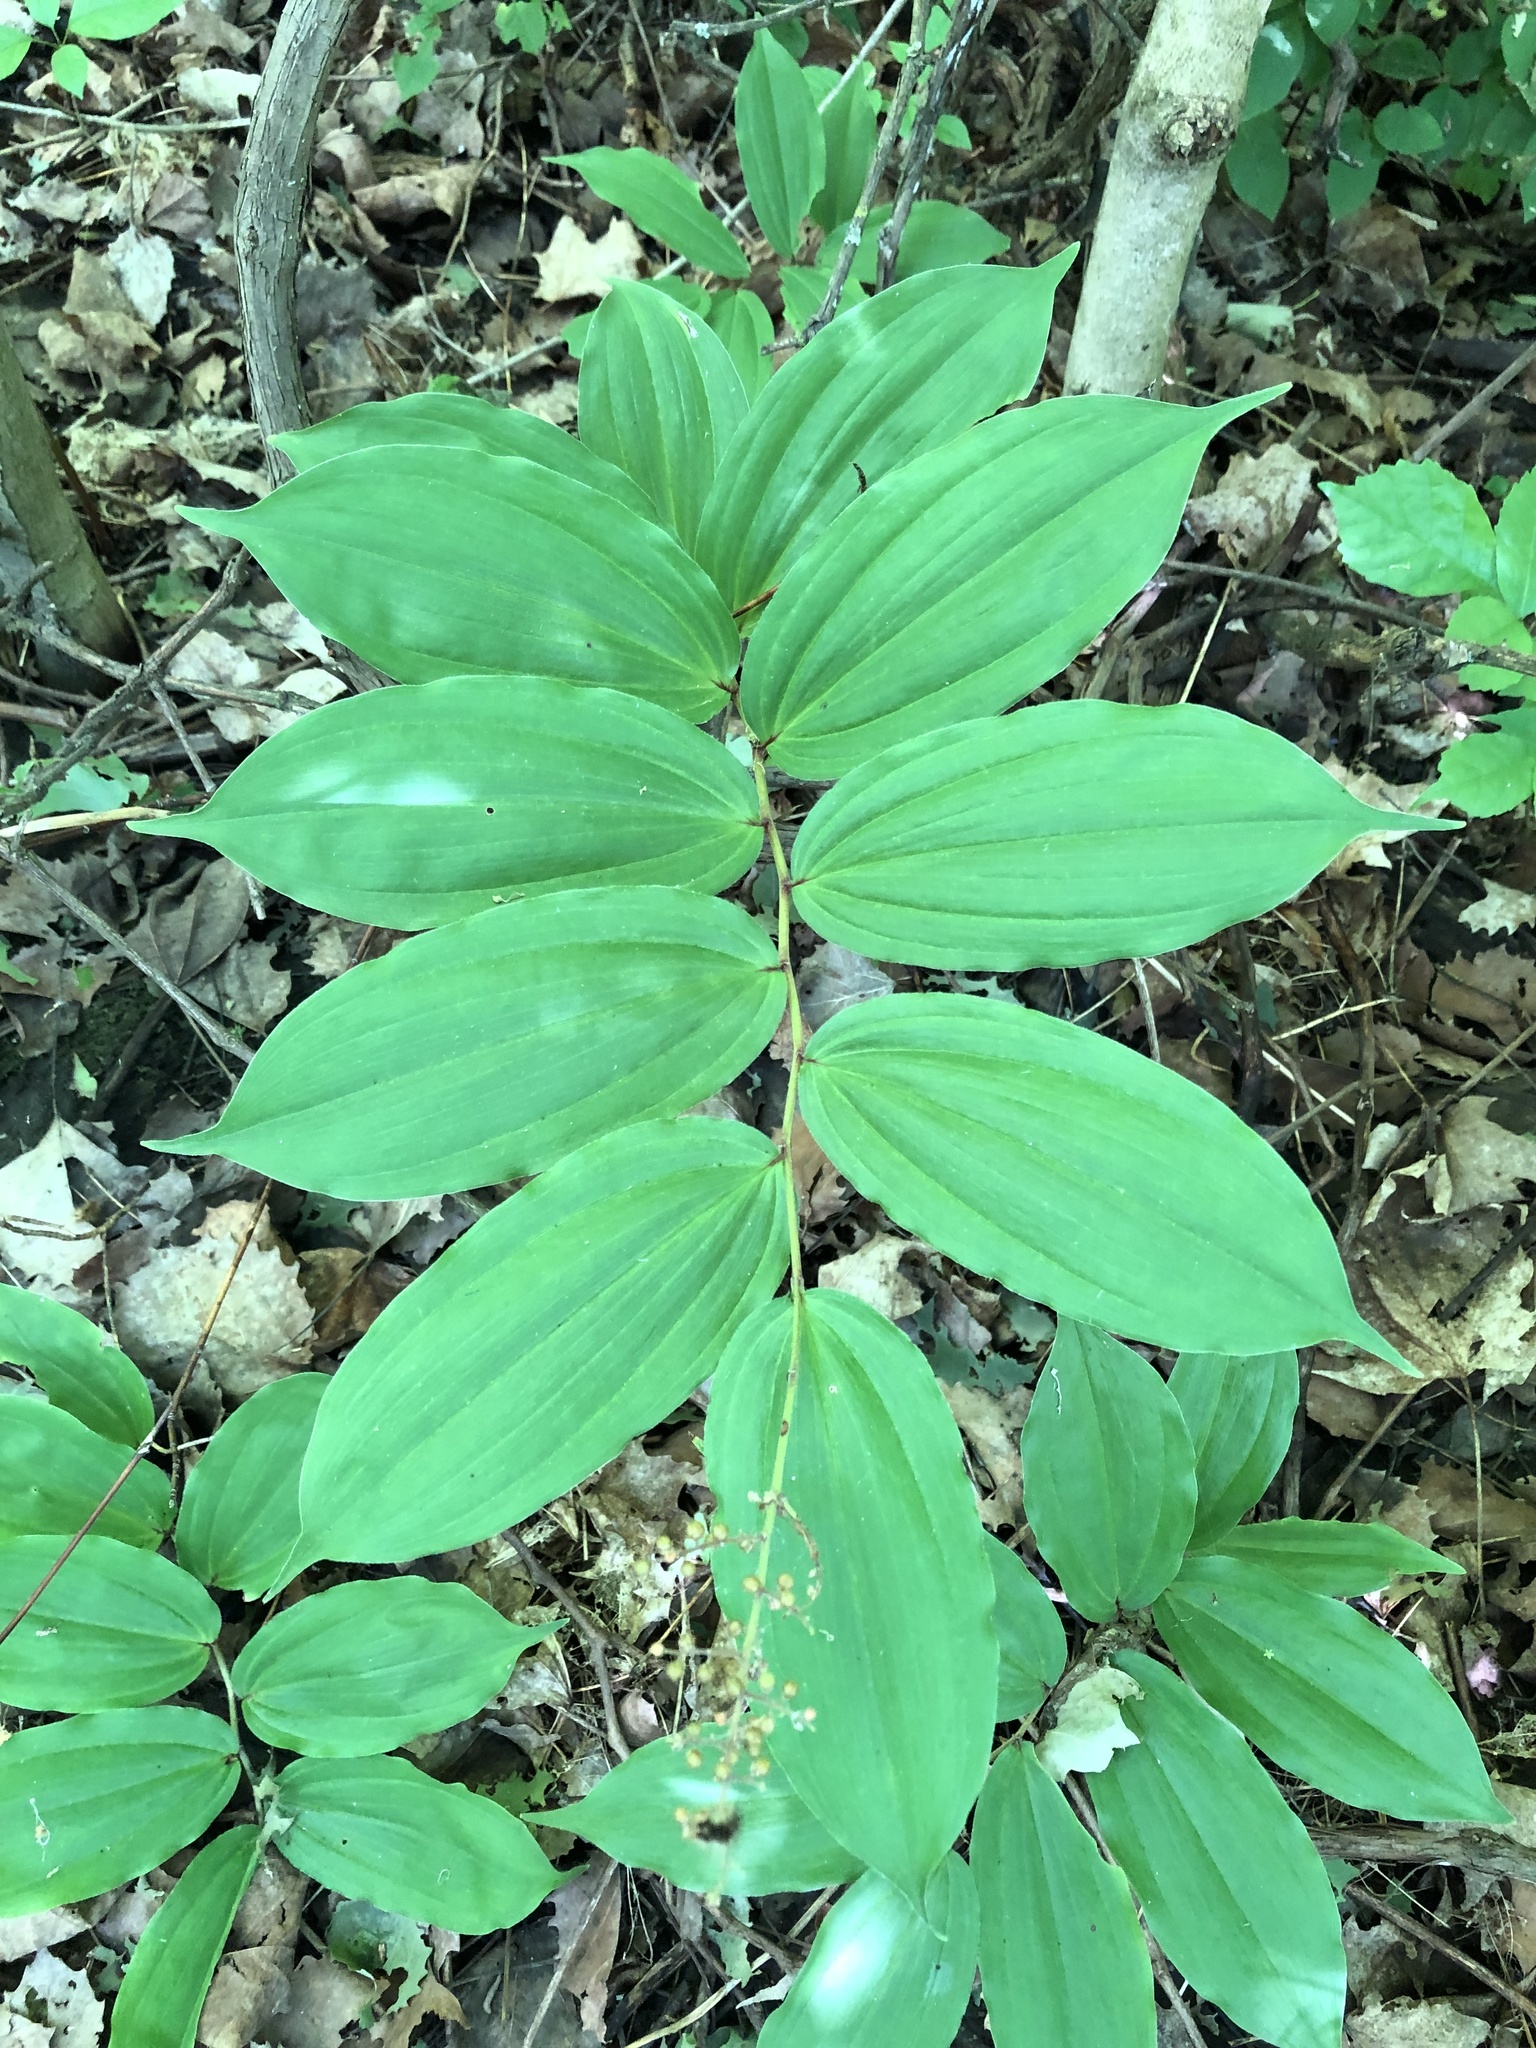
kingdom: Plantae
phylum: Tracheophyta
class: Liliopsida
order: Asparagales
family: Asparagaceae
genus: Maianthemum
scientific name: Maianthemum racemosum
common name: False spikenard
